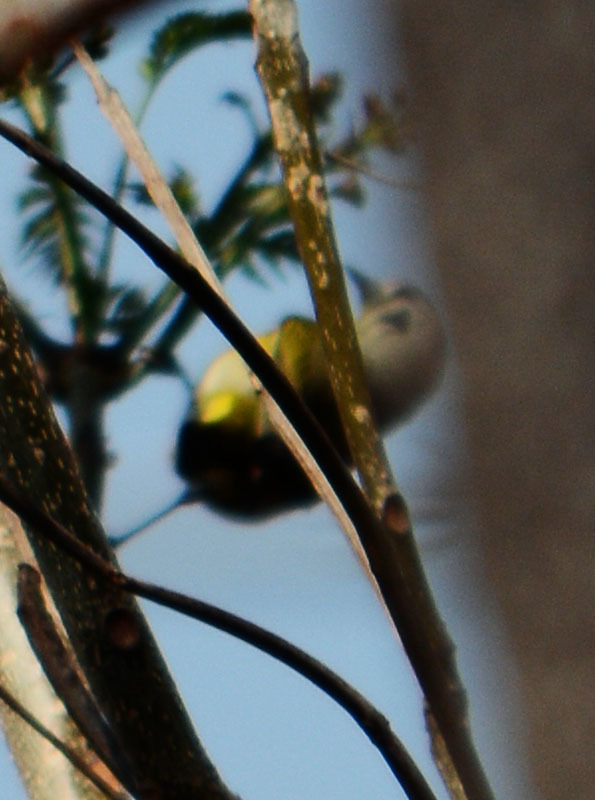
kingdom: Animalia
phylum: Chordata
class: Aves
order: Passeriformes
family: Parulidae
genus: Leiothlypis
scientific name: Leiothlypis ruficapilla
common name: Nashville warbler
